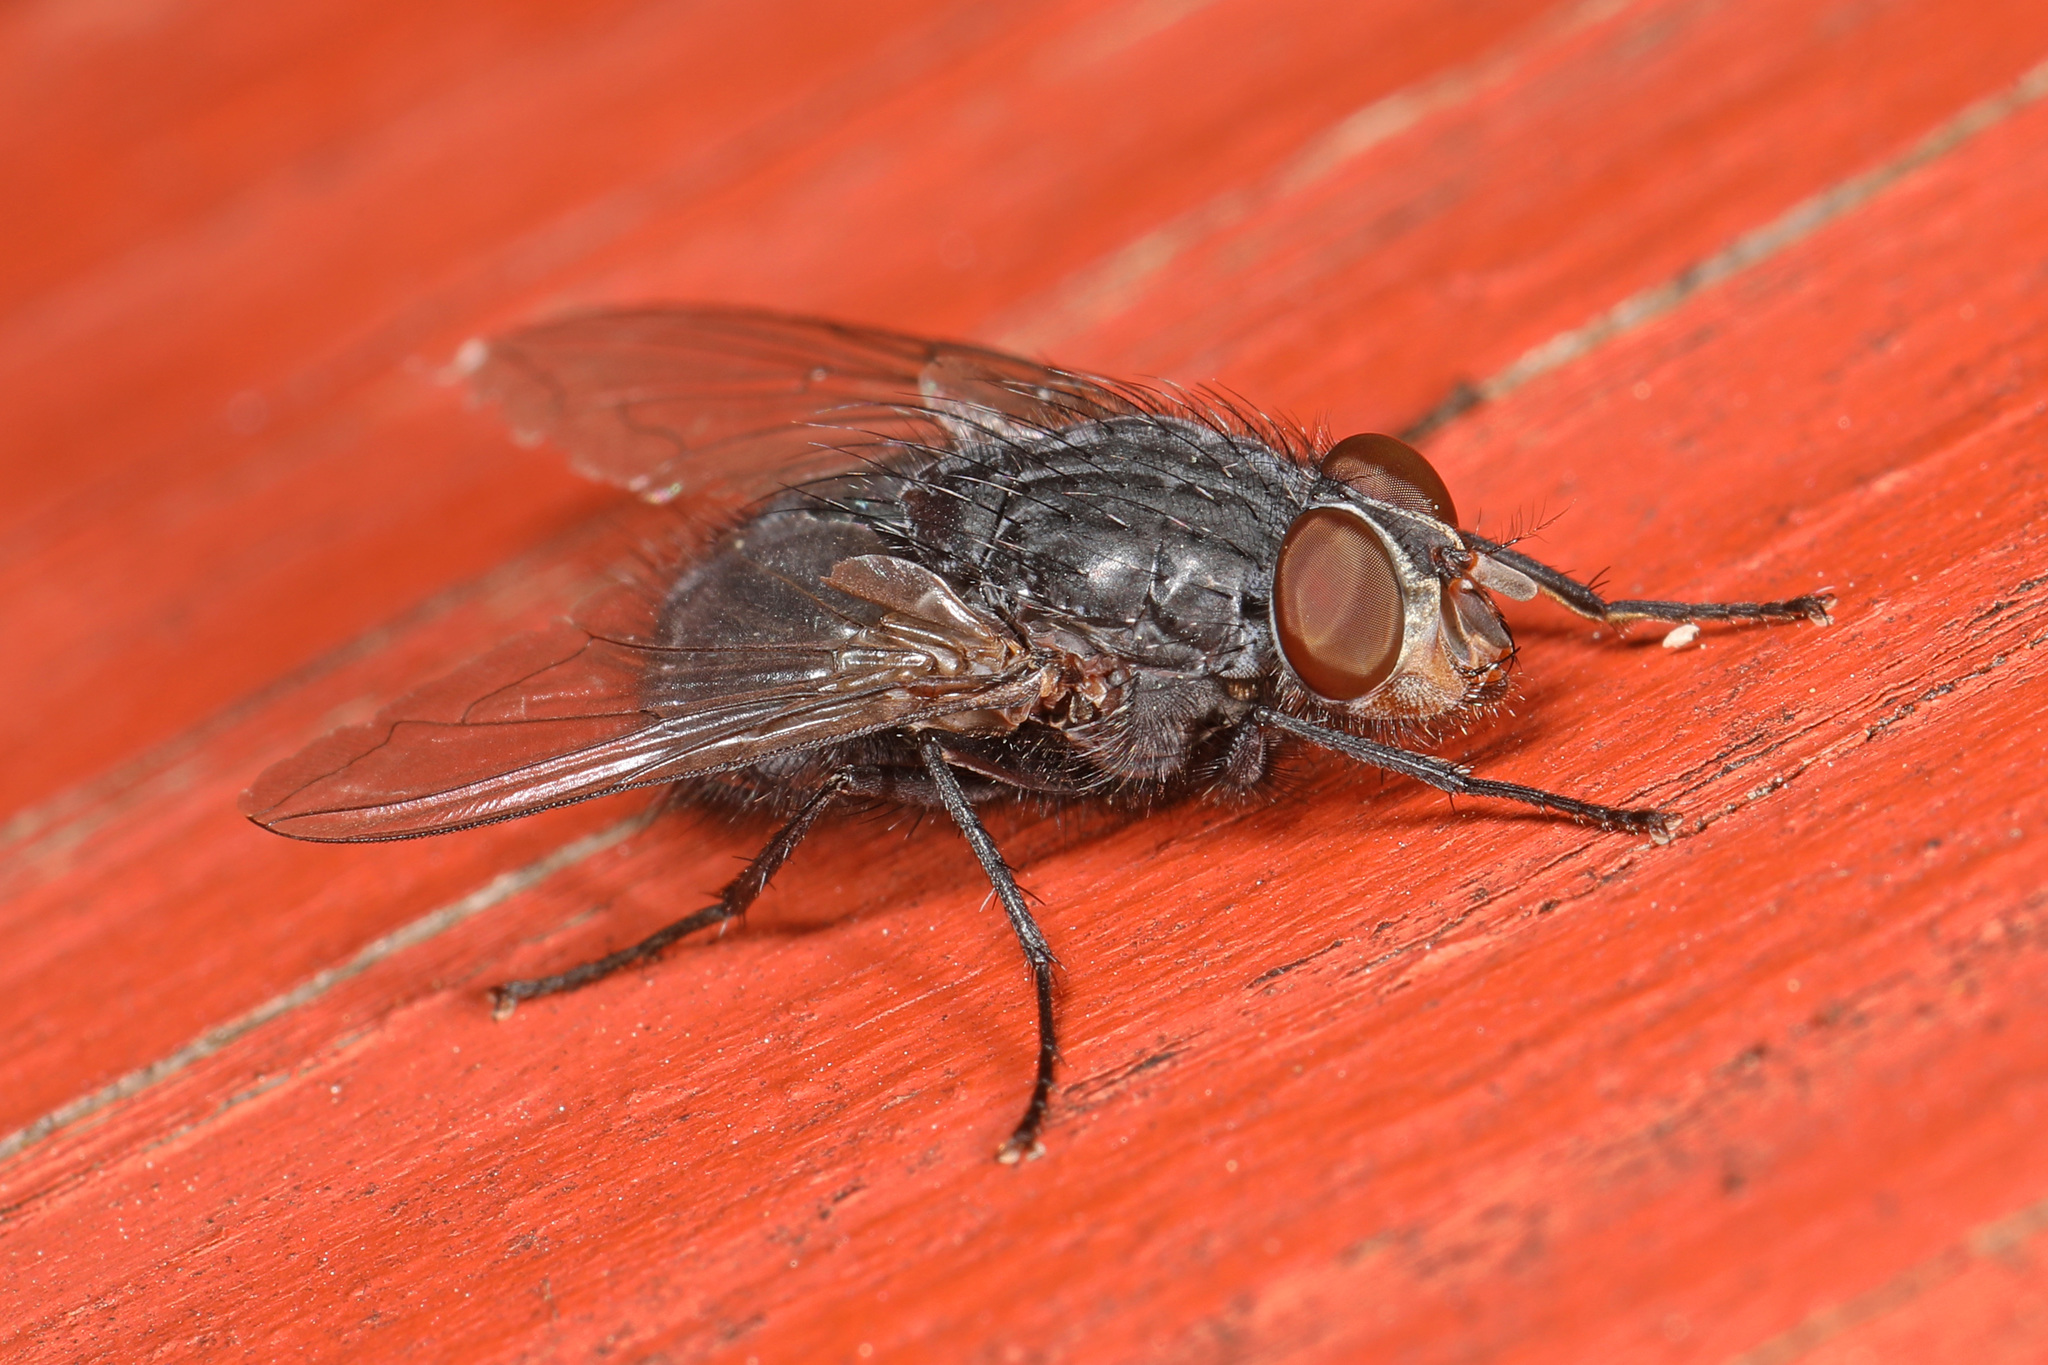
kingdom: Animalia
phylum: Arthropoda
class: Insecta
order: Diptera
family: Calliphoridae
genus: Calliphora
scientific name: Calliphora vicina
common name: Common blow flie
